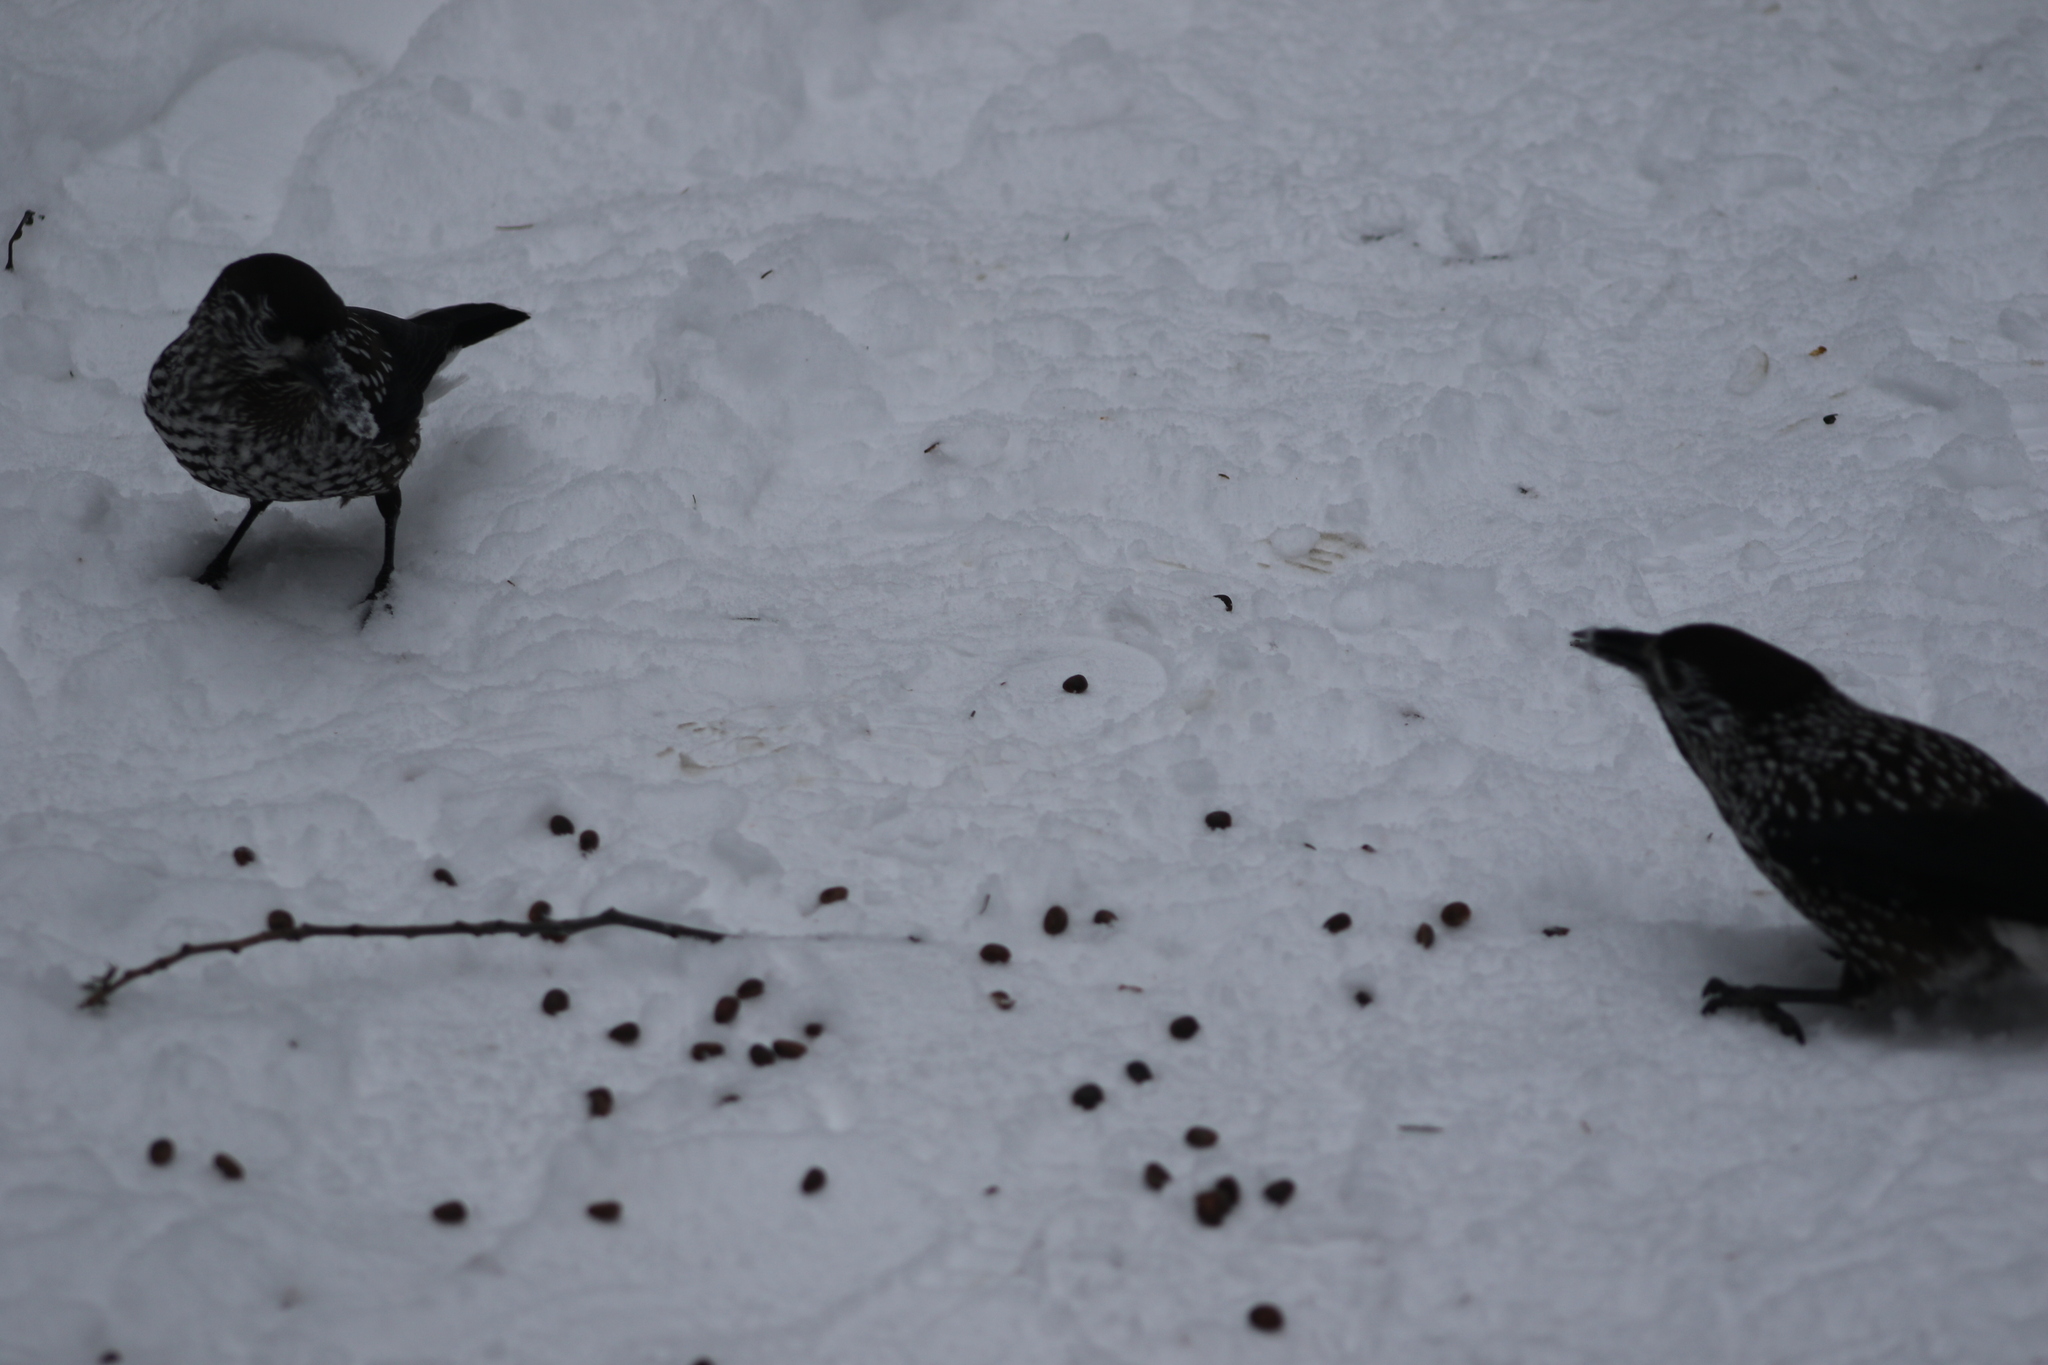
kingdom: Animalia
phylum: Chordata
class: Aves
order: Passeriformes
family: Corvidae
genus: Nucifraga
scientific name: Nucifraga caryocatactes
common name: Spotted nutcracker
